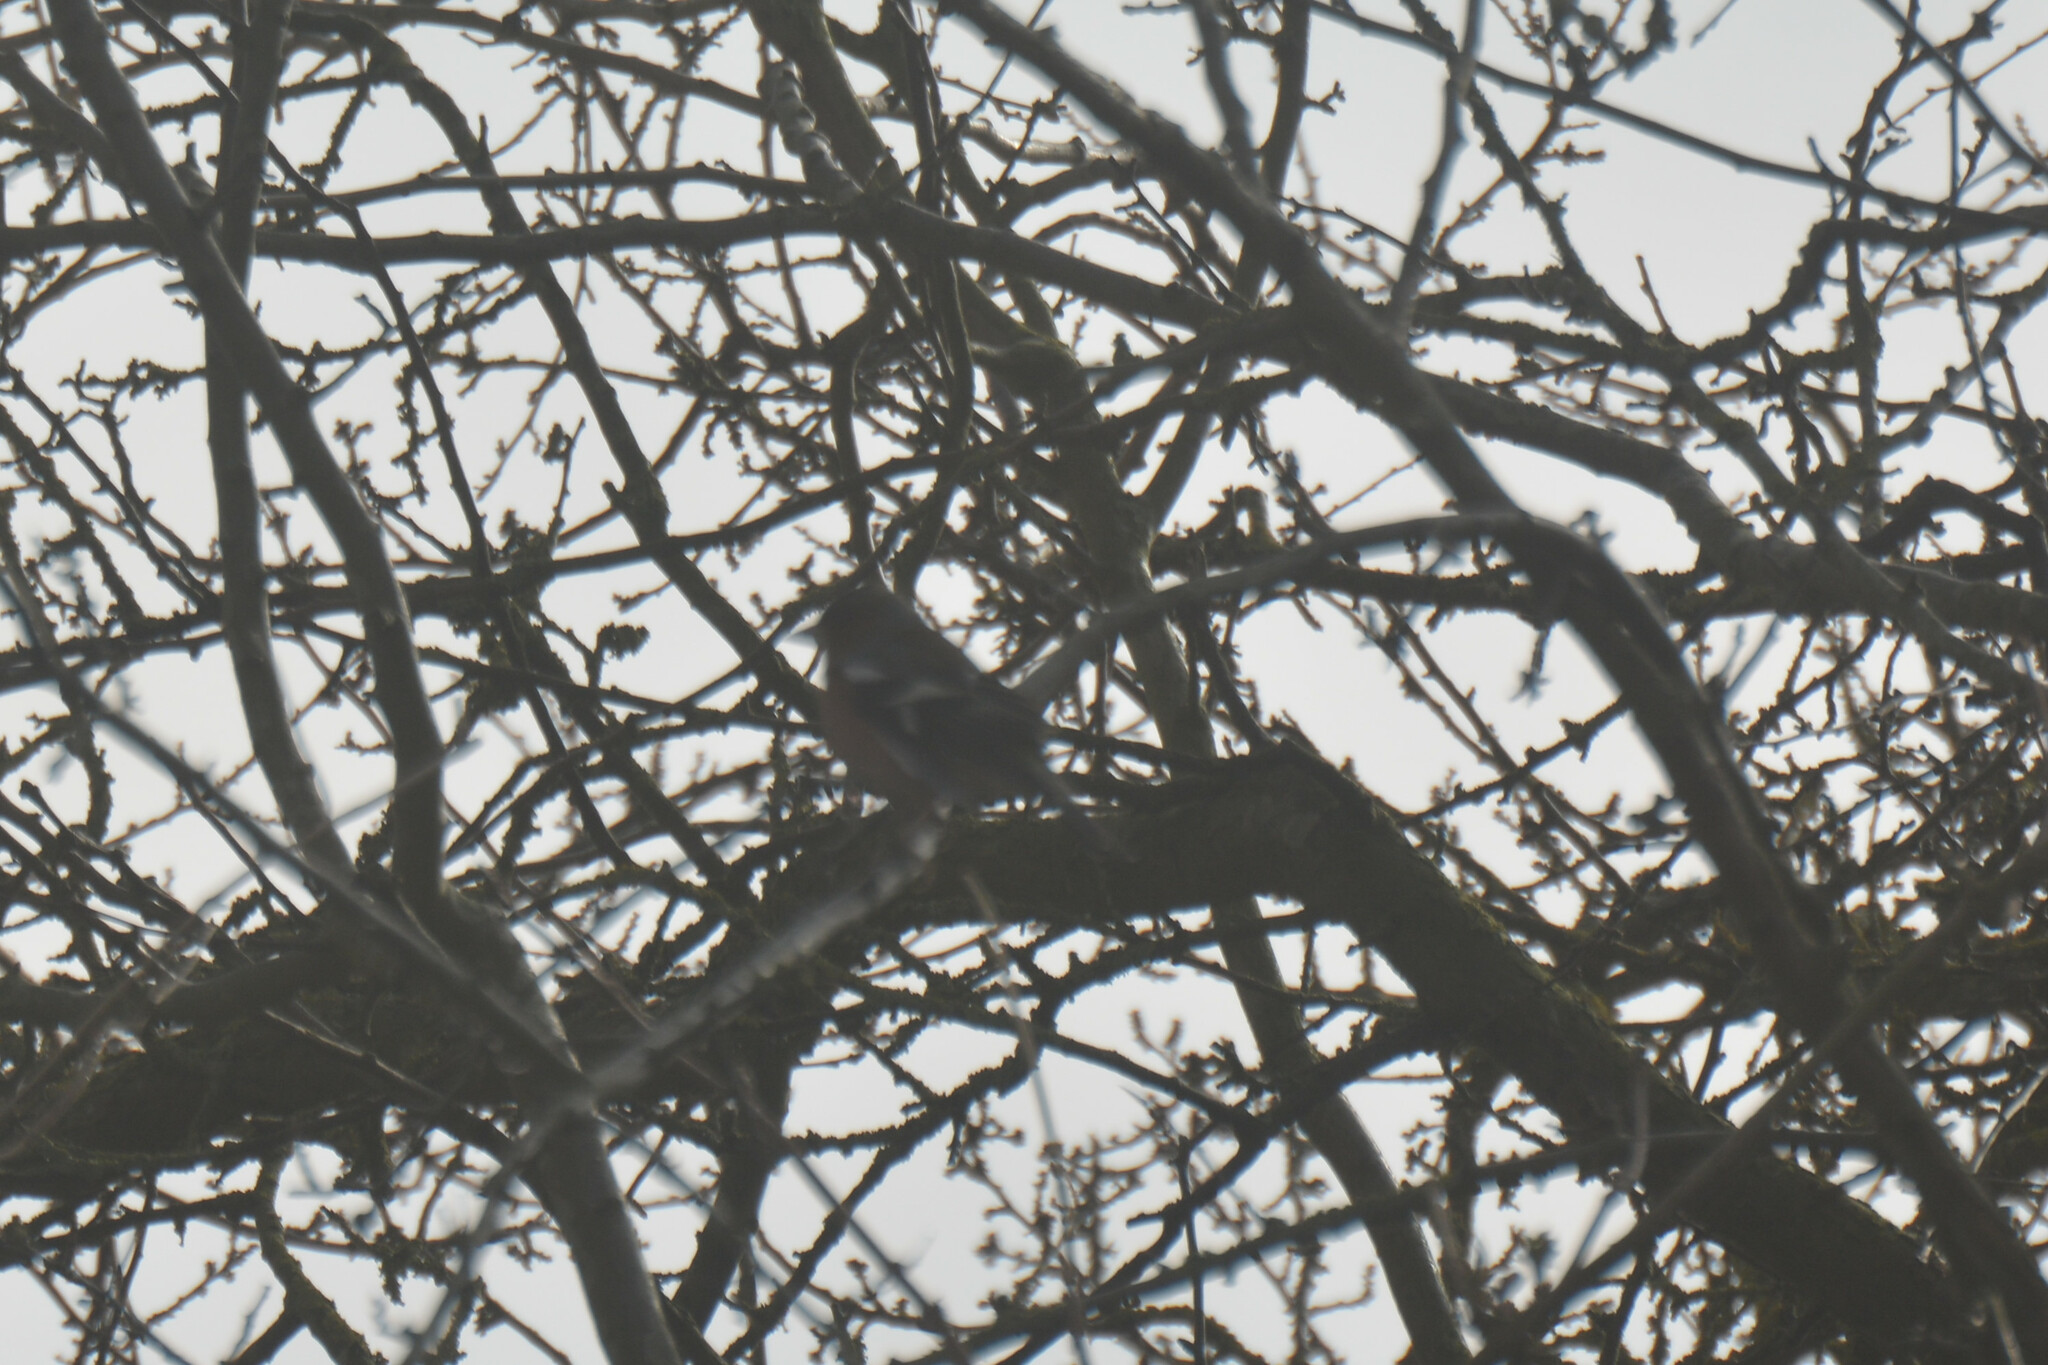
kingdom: Animalia
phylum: Chordata
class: Aves
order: Passeriformes
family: Fringillidae
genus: Fringilla
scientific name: Fringilla coelebs
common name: Common chaffinch
